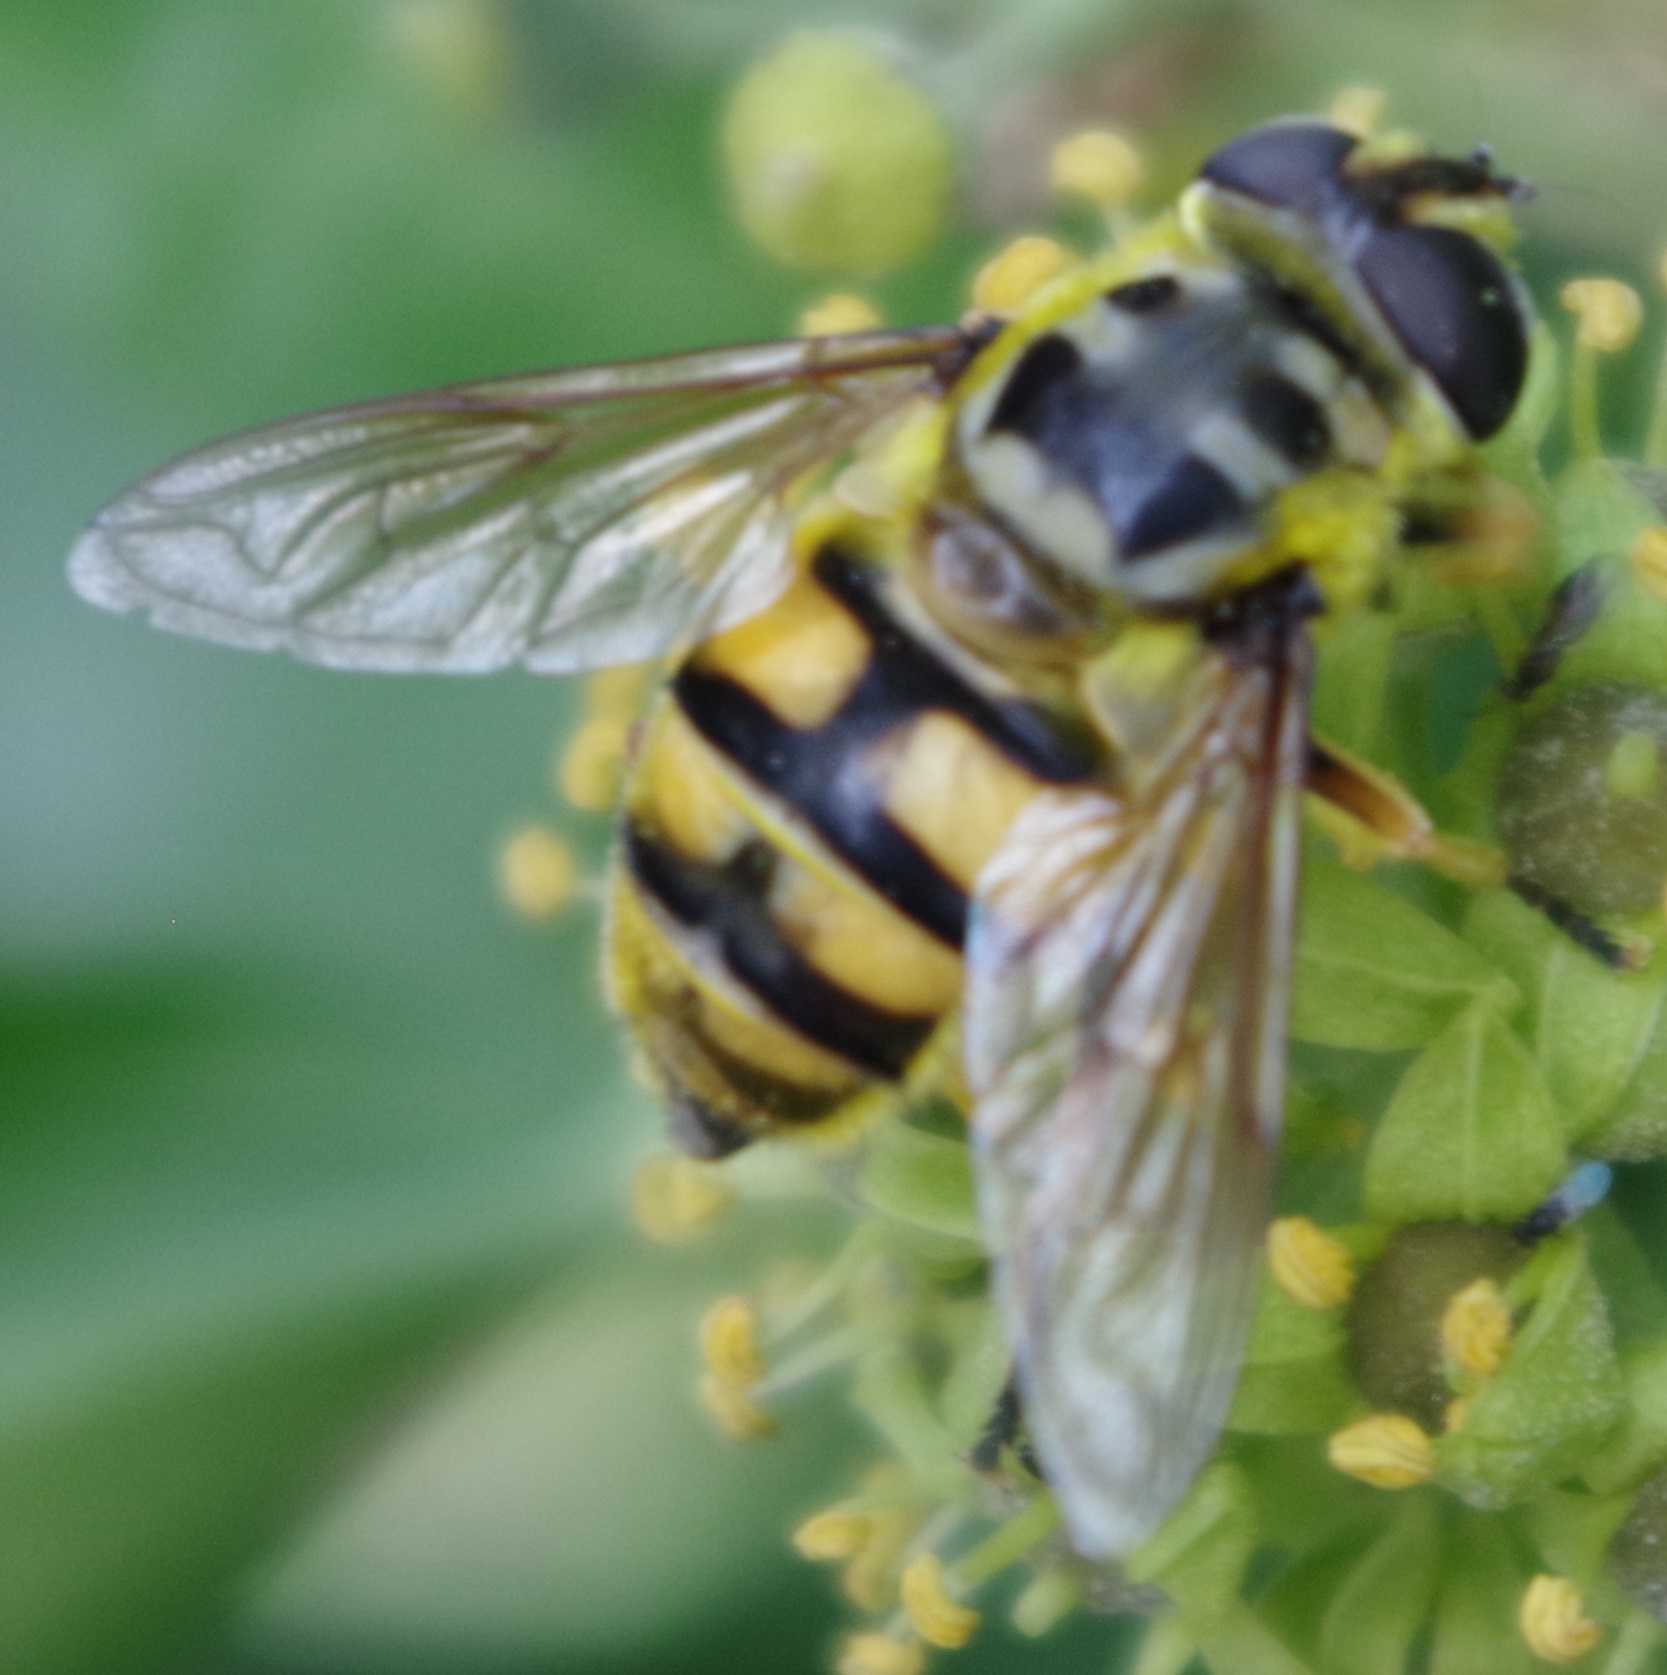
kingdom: Animalia
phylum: Arthropoda
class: Insecta
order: Diptera
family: Syrphidae
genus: Myathropa
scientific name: Myathropa florea
